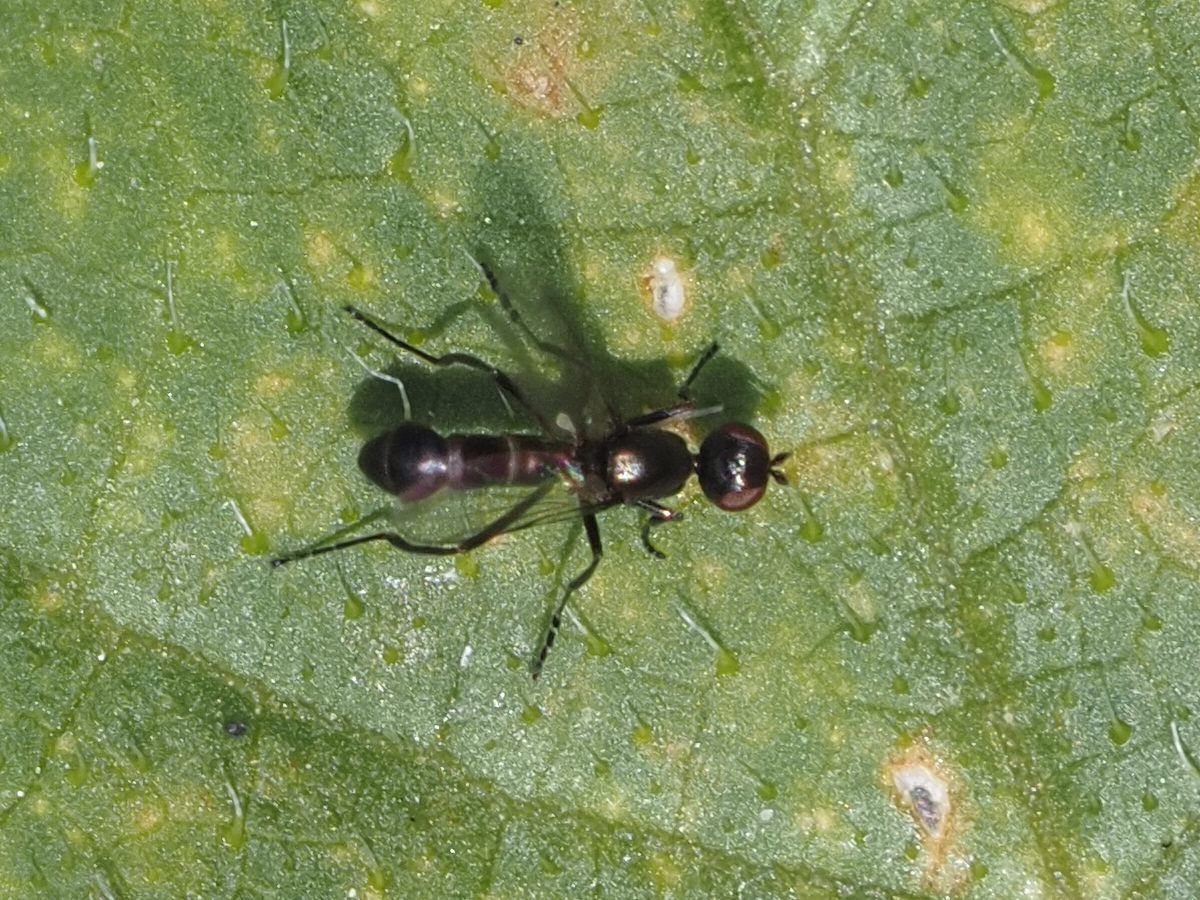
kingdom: Animalia
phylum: Arthropoda
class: Insecta
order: Diptera
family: Sepsidae
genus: Themira
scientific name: Themira annulipes
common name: Sepsid fly
